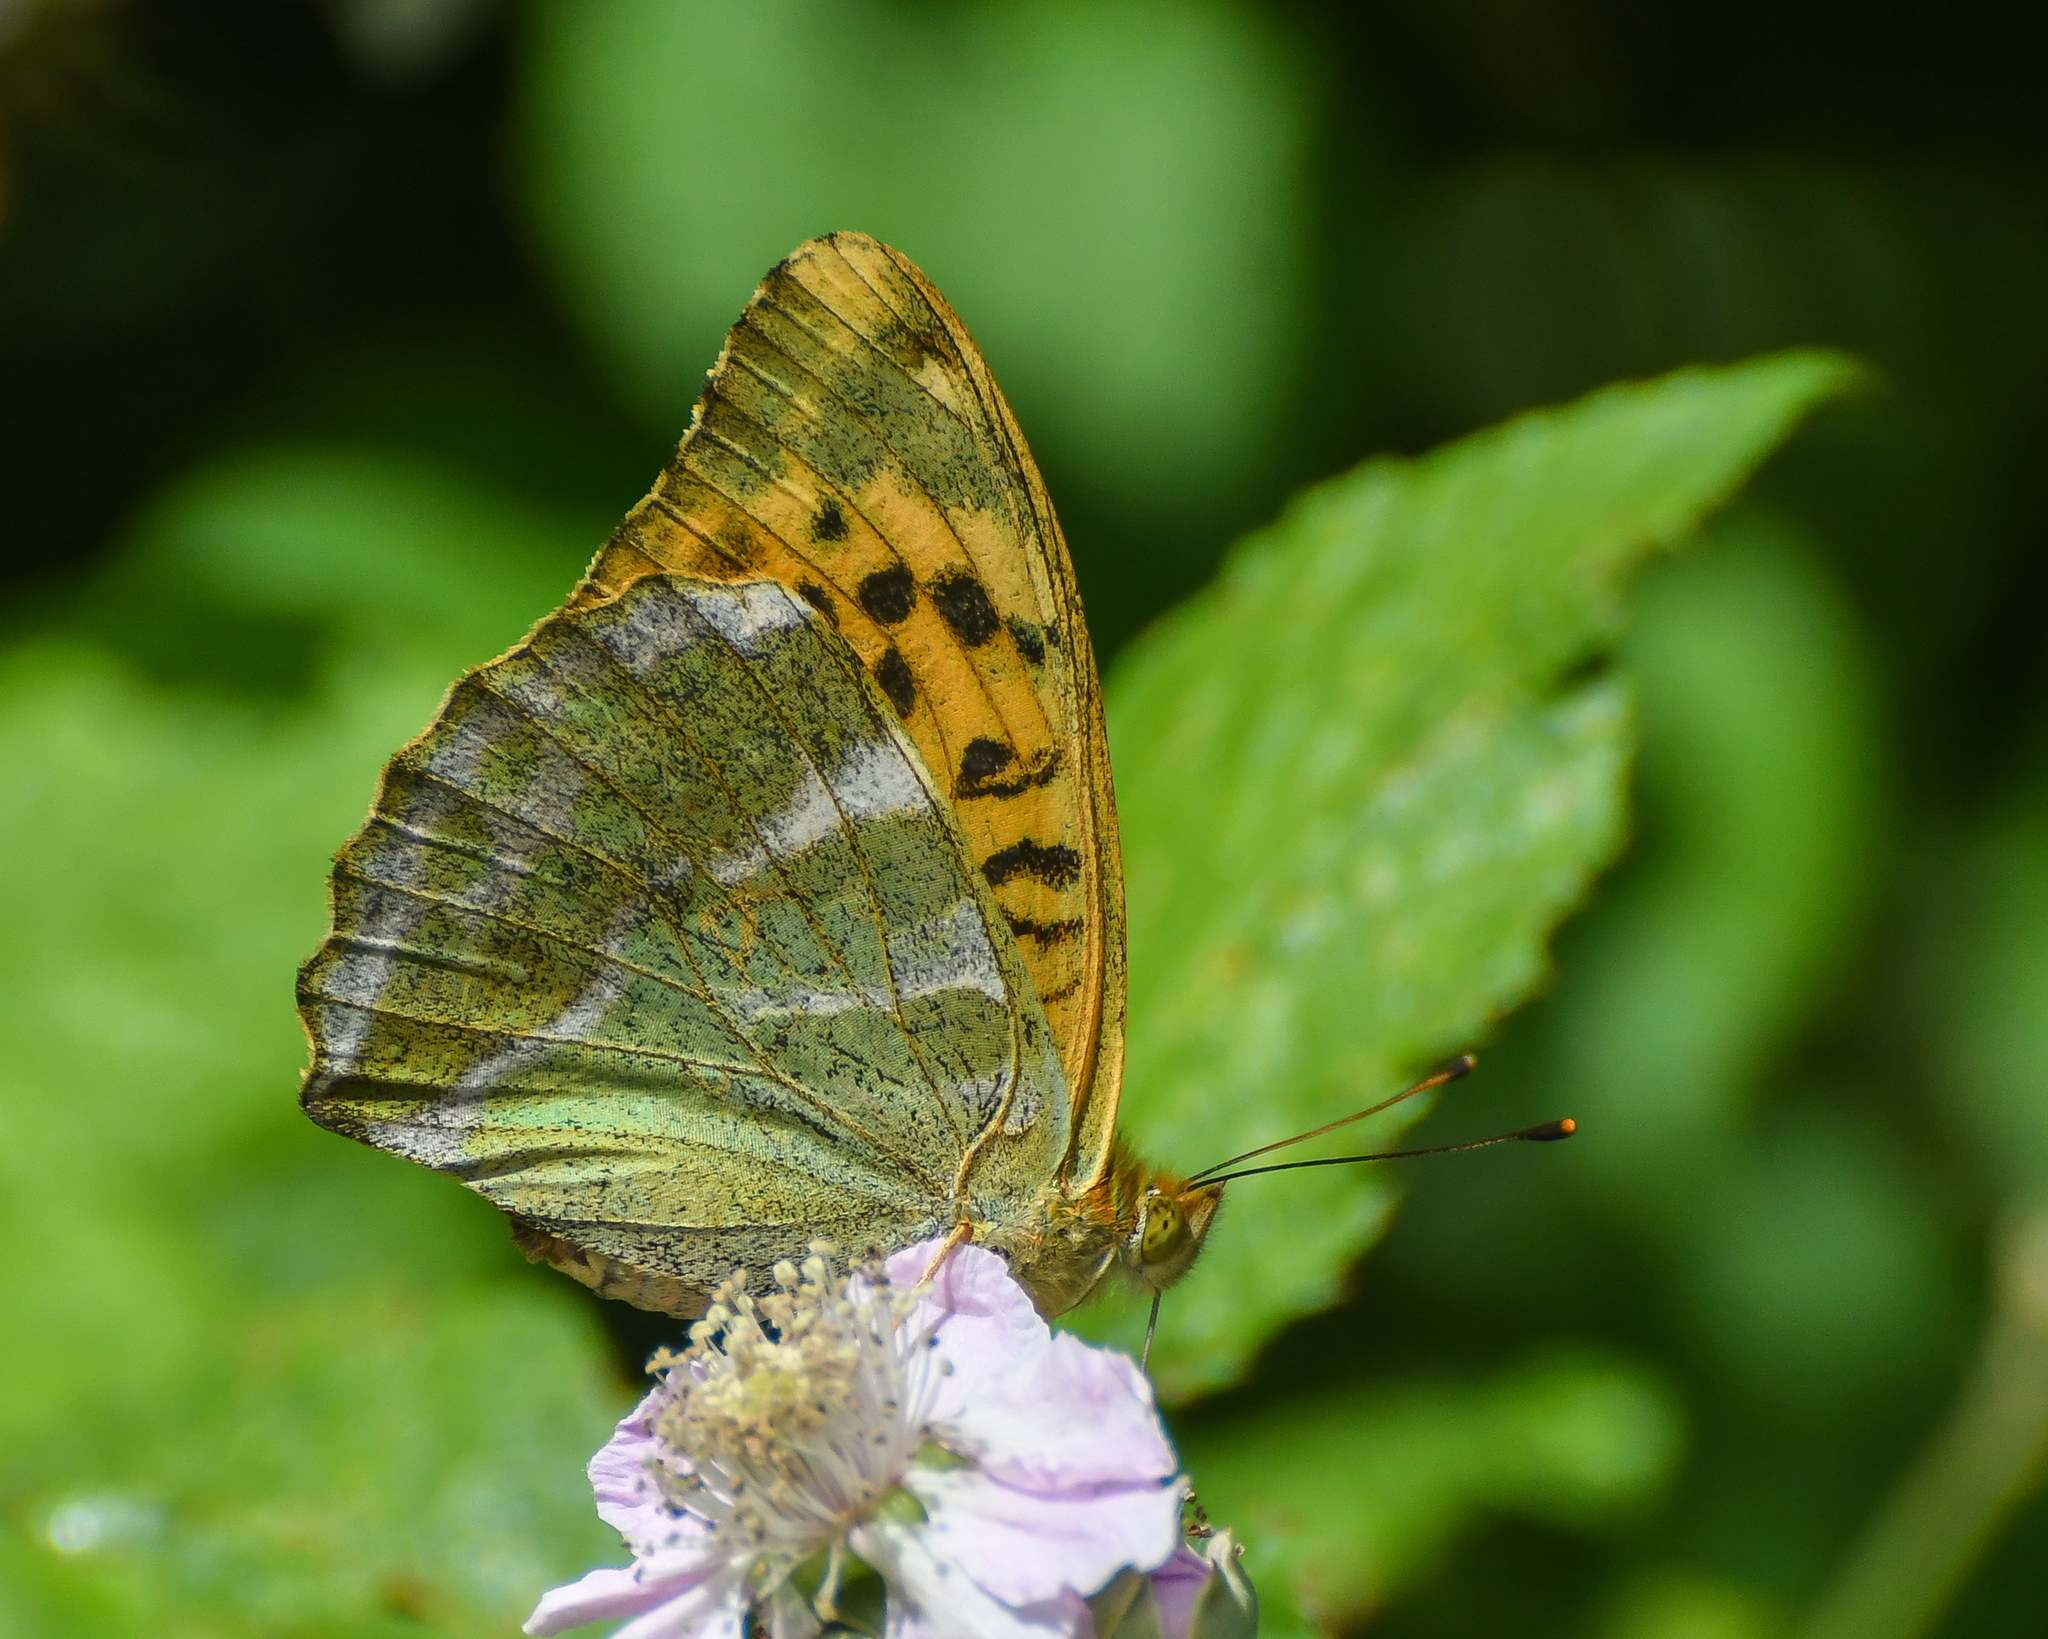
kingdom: Animalia
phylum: Arthropoda
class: Insecta
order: Lepidoptera
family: Nymphalidae
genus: Argynnis
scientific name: Argynnis paphia
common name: Silver-washed fritillary
